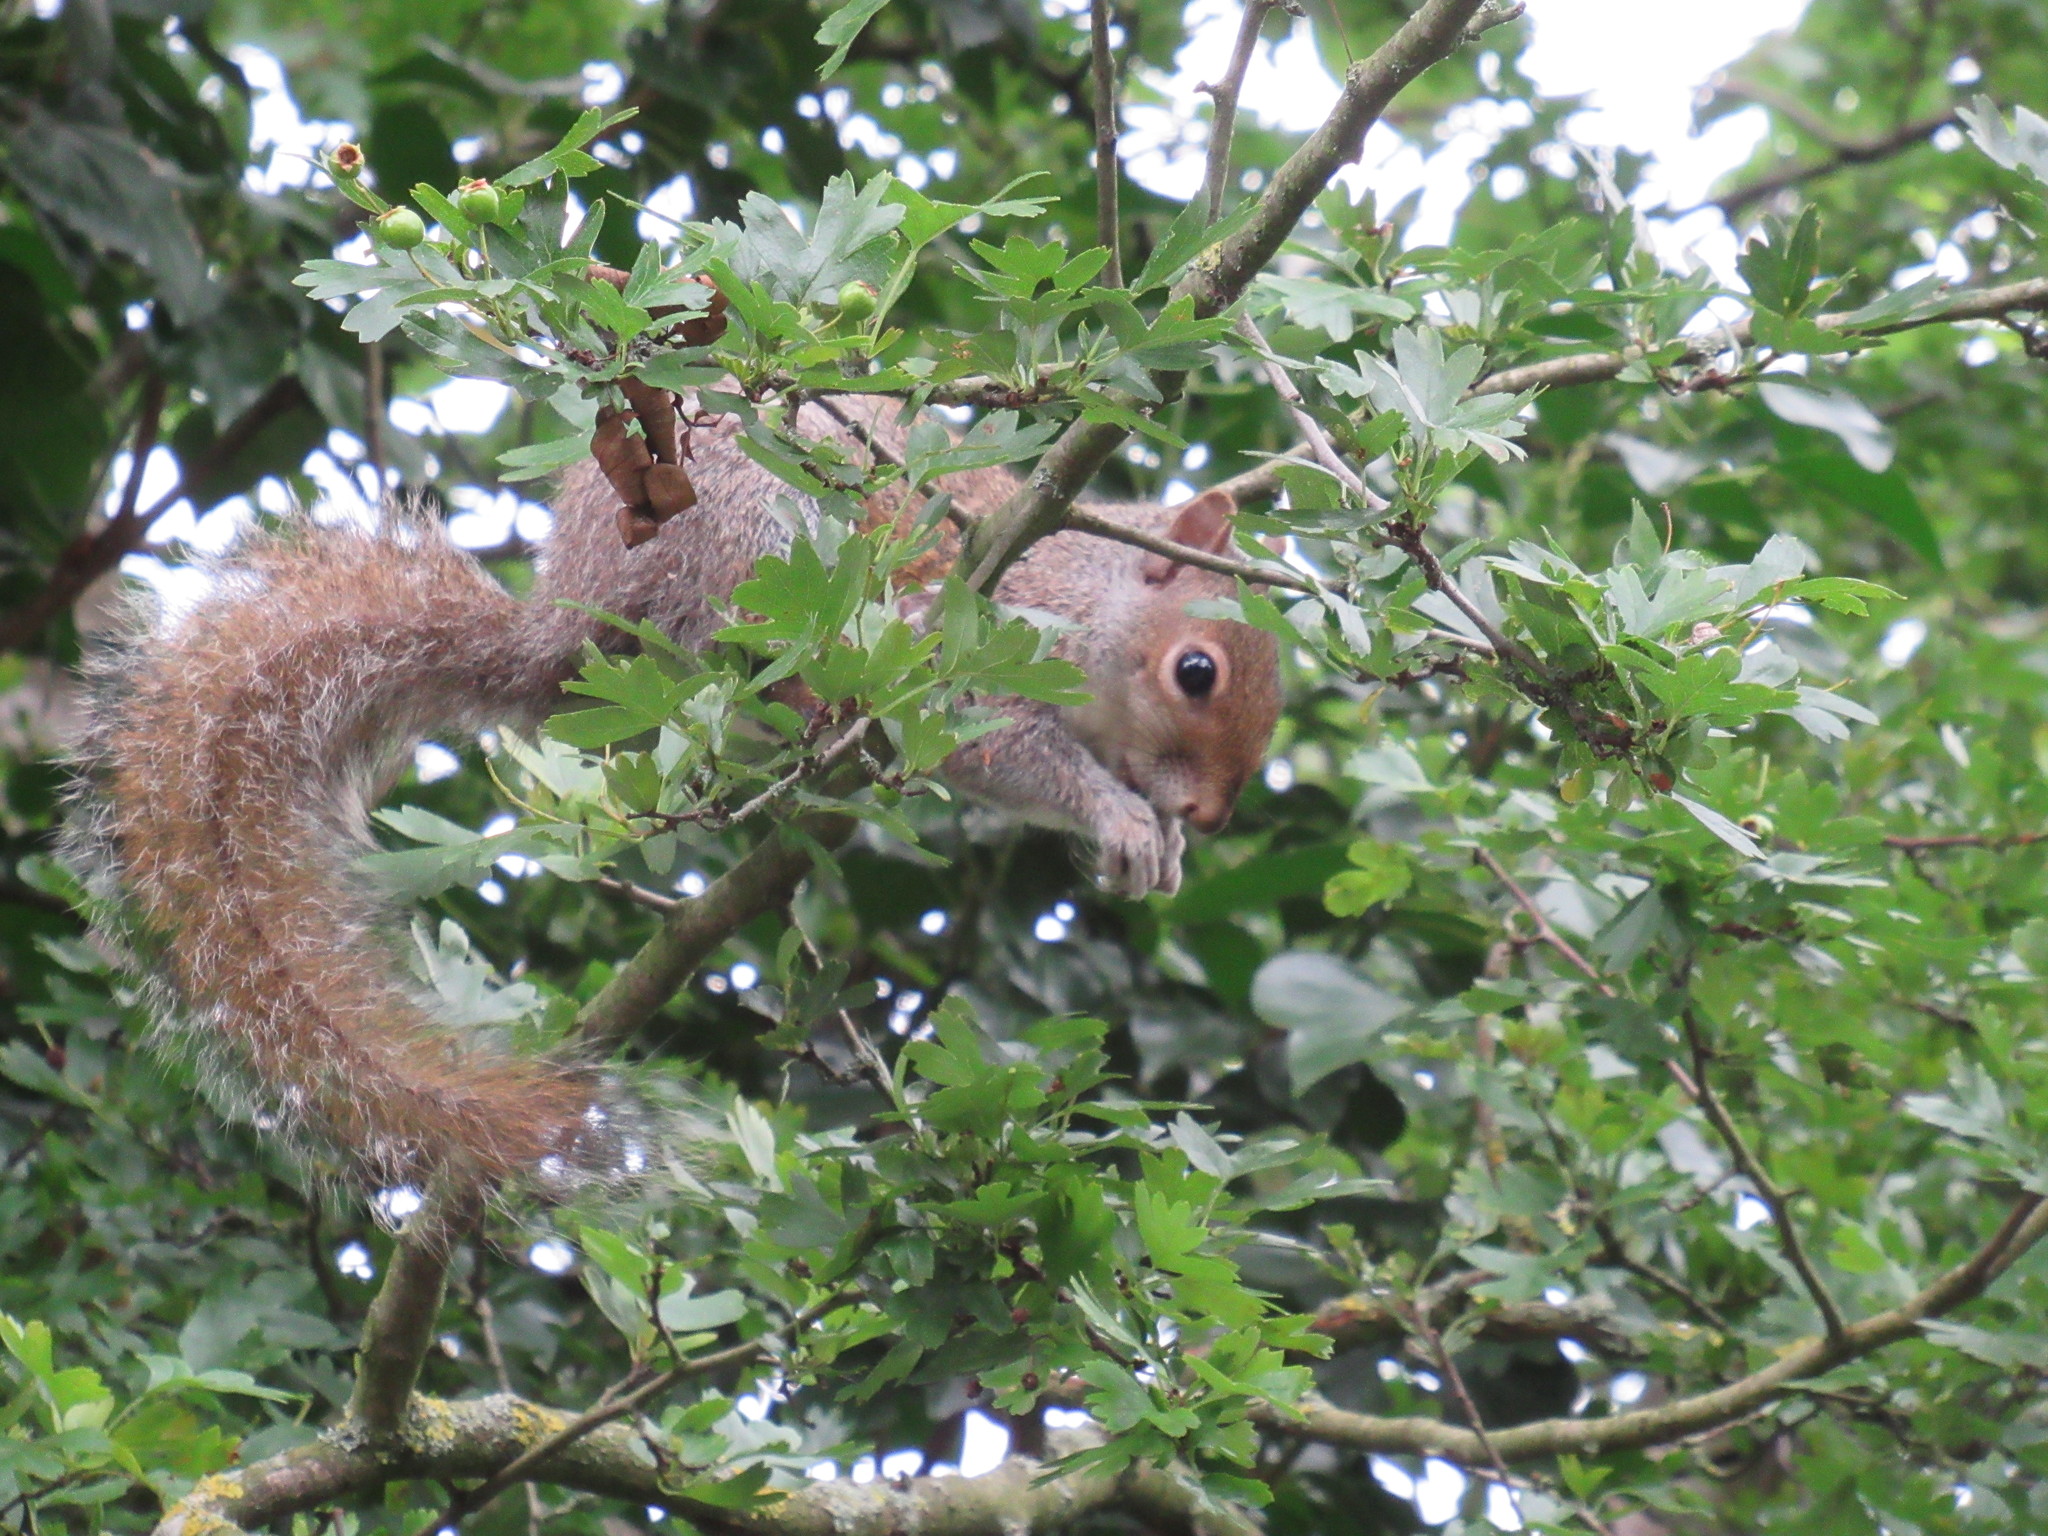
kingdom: Animalia
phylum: Chordata
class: Mammalia
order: Rodentia
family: Sciuridae
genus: Sciurus
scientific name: Sciurus carolinensis
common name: Eastern gray squirrel
